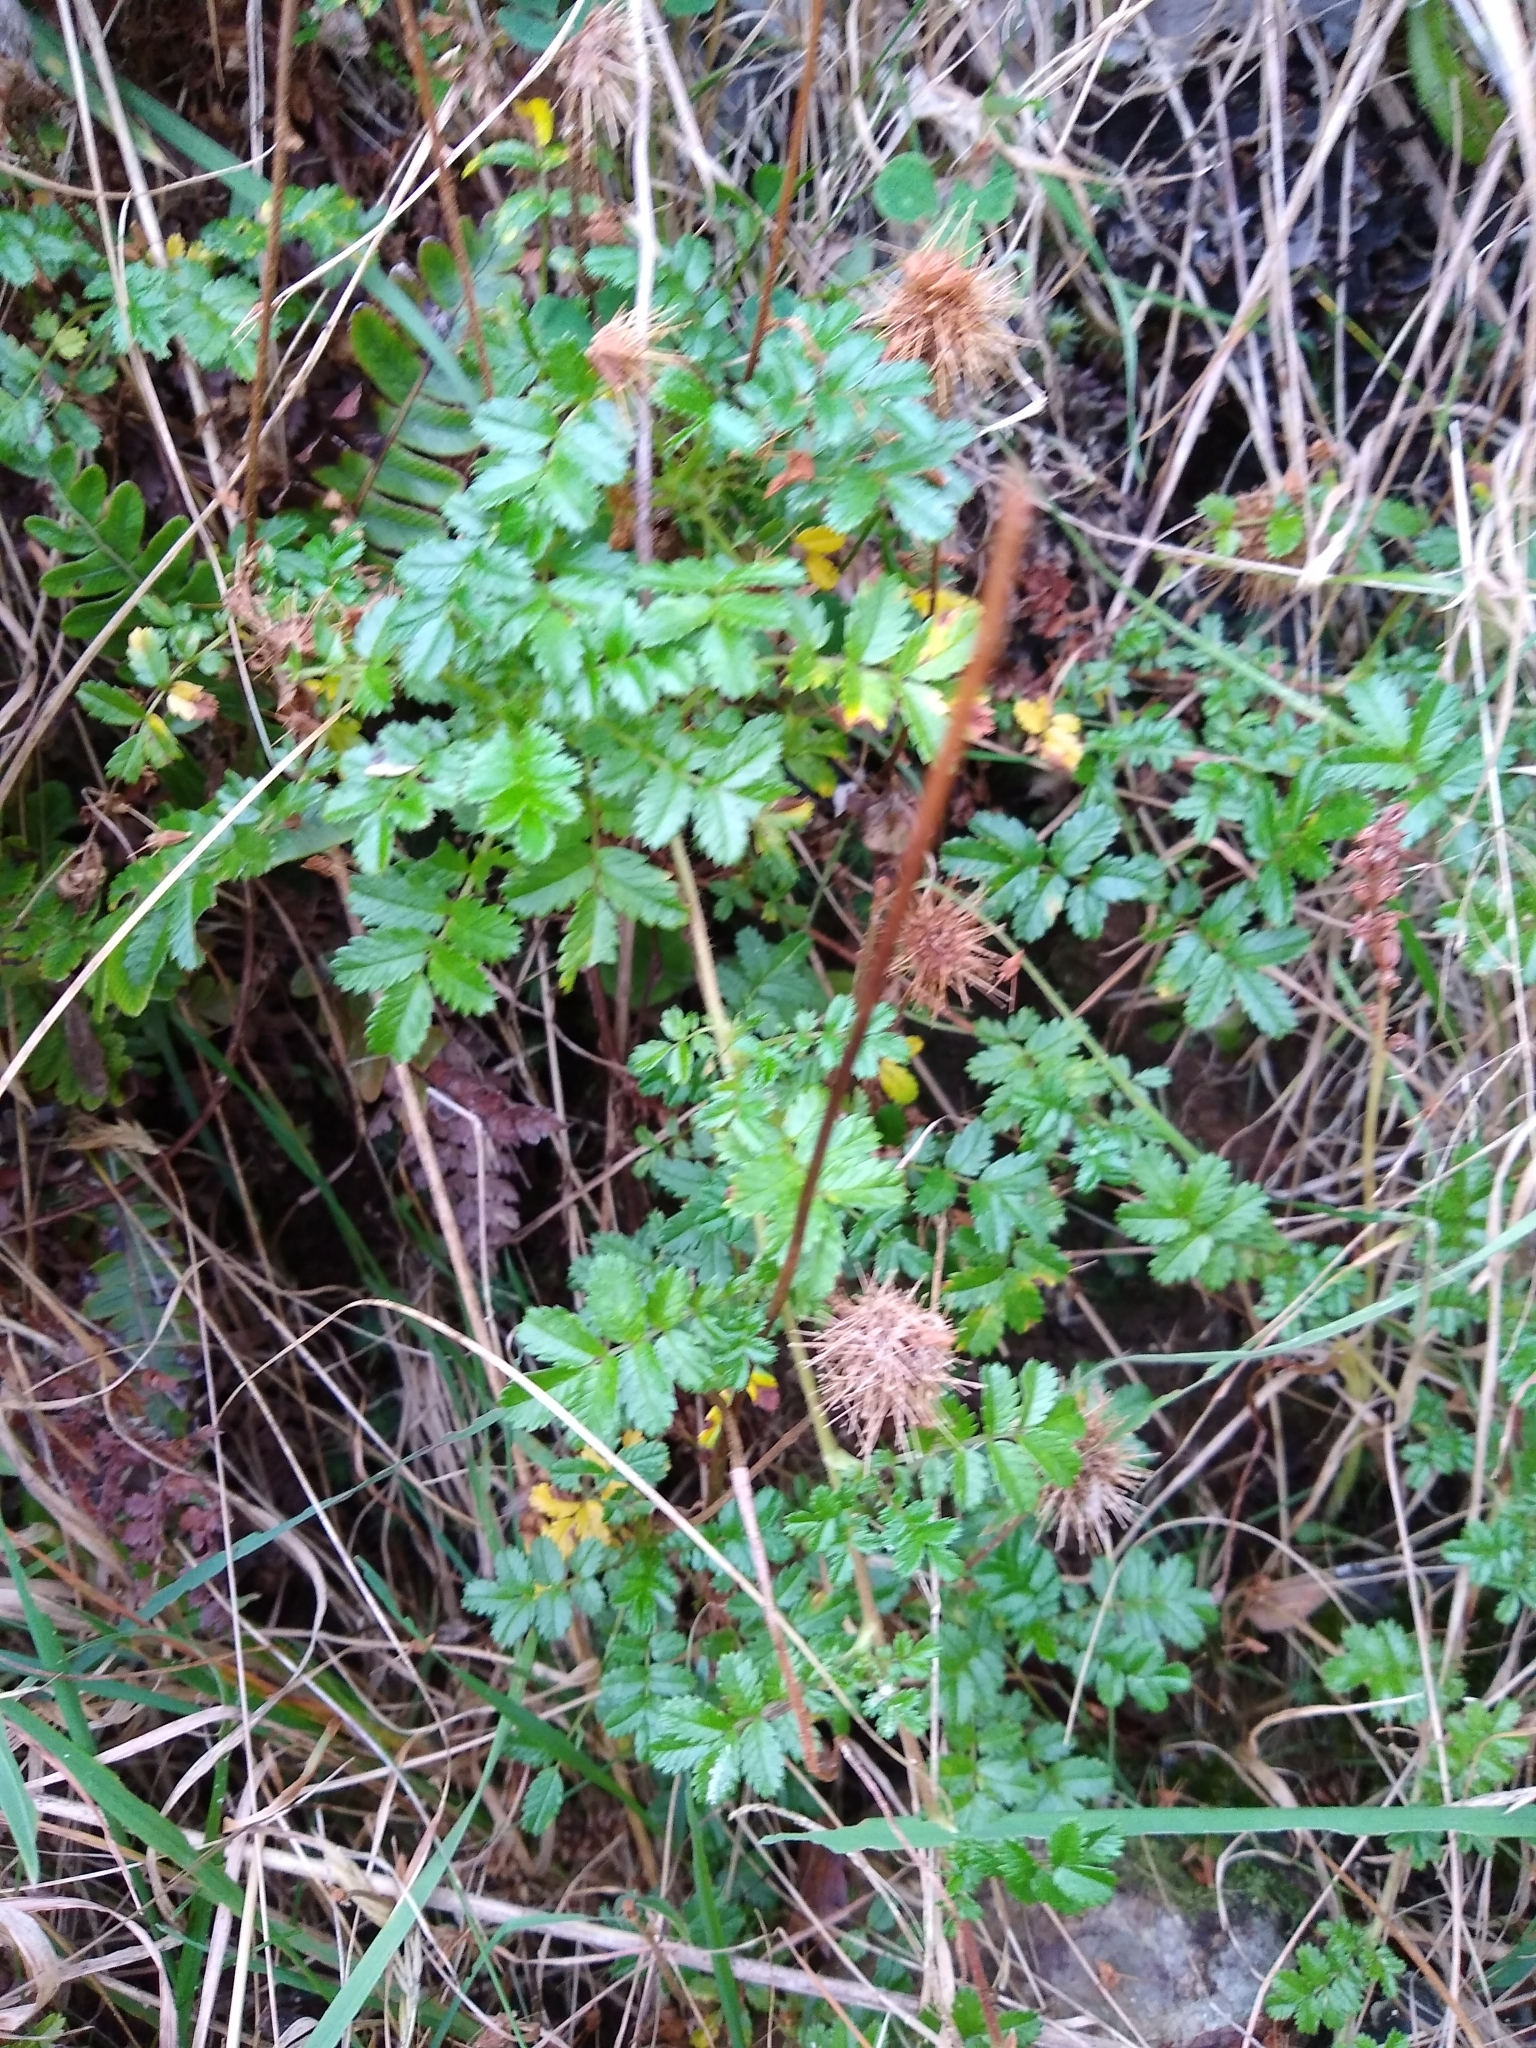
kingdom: Plantae
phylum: Tracheophyta
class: Magnoliopsida
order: Rosales
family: Rosaceae
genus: Acaena
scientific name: Acaena novae-zelandiae
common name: Pirri-pirri-bur
